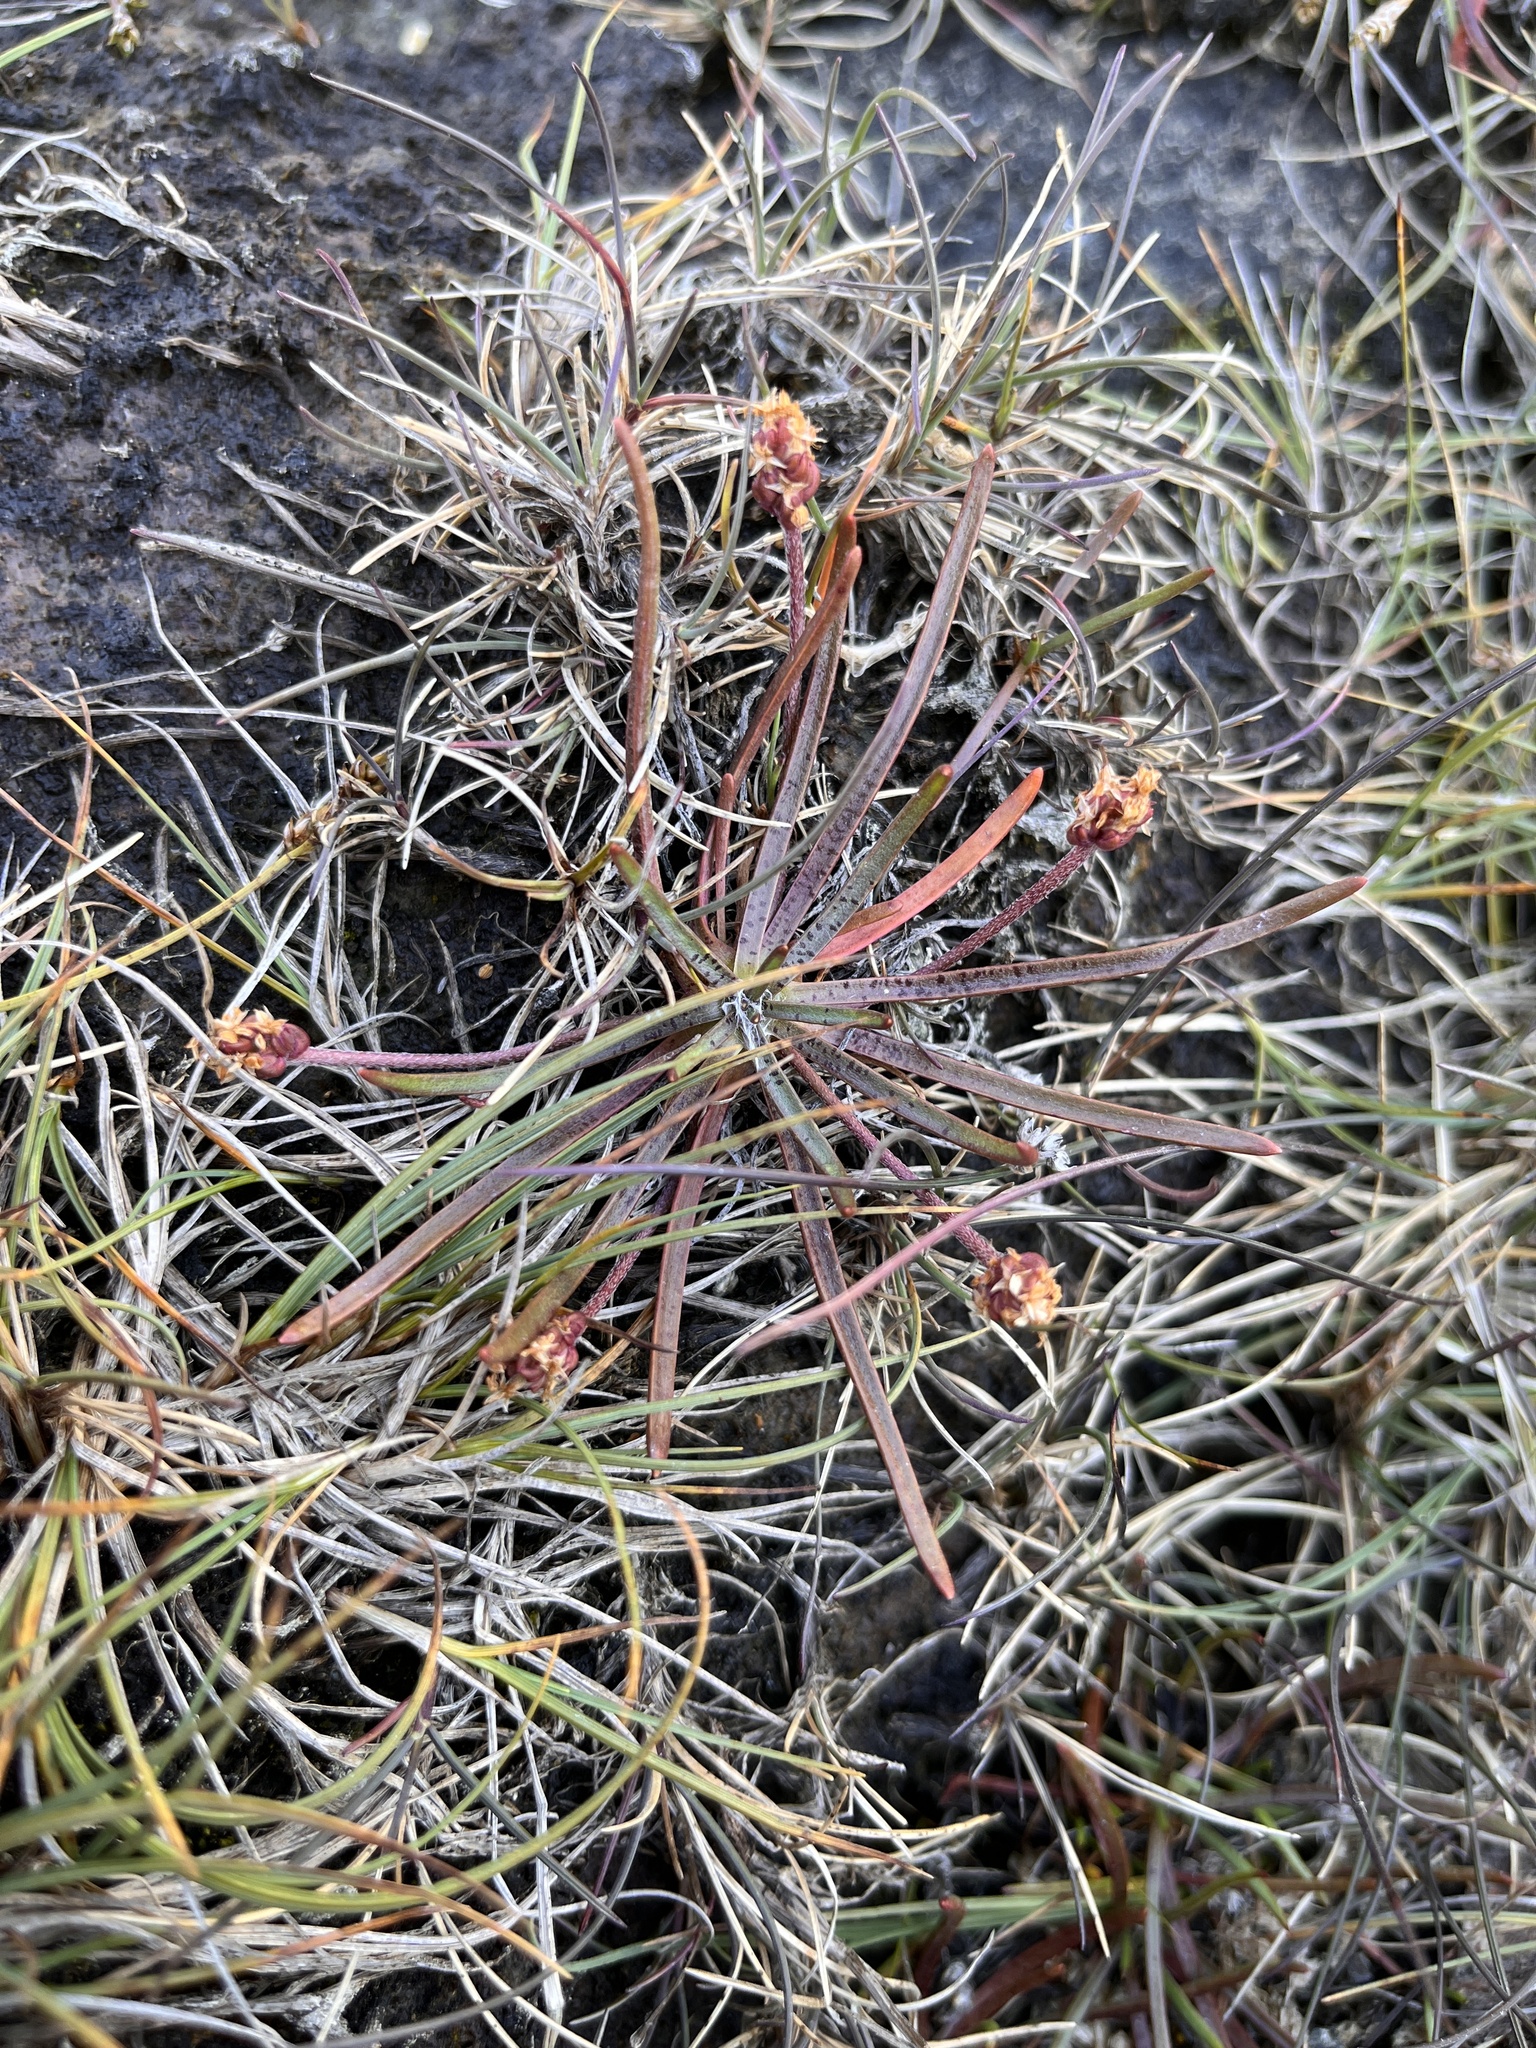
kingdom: Plantae
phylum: Tracheophyta
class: Magnoliopsida
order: Lamiales
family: Plantaginaceae
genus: Plantago
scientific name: Plantago maritima
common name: Sea plantain
